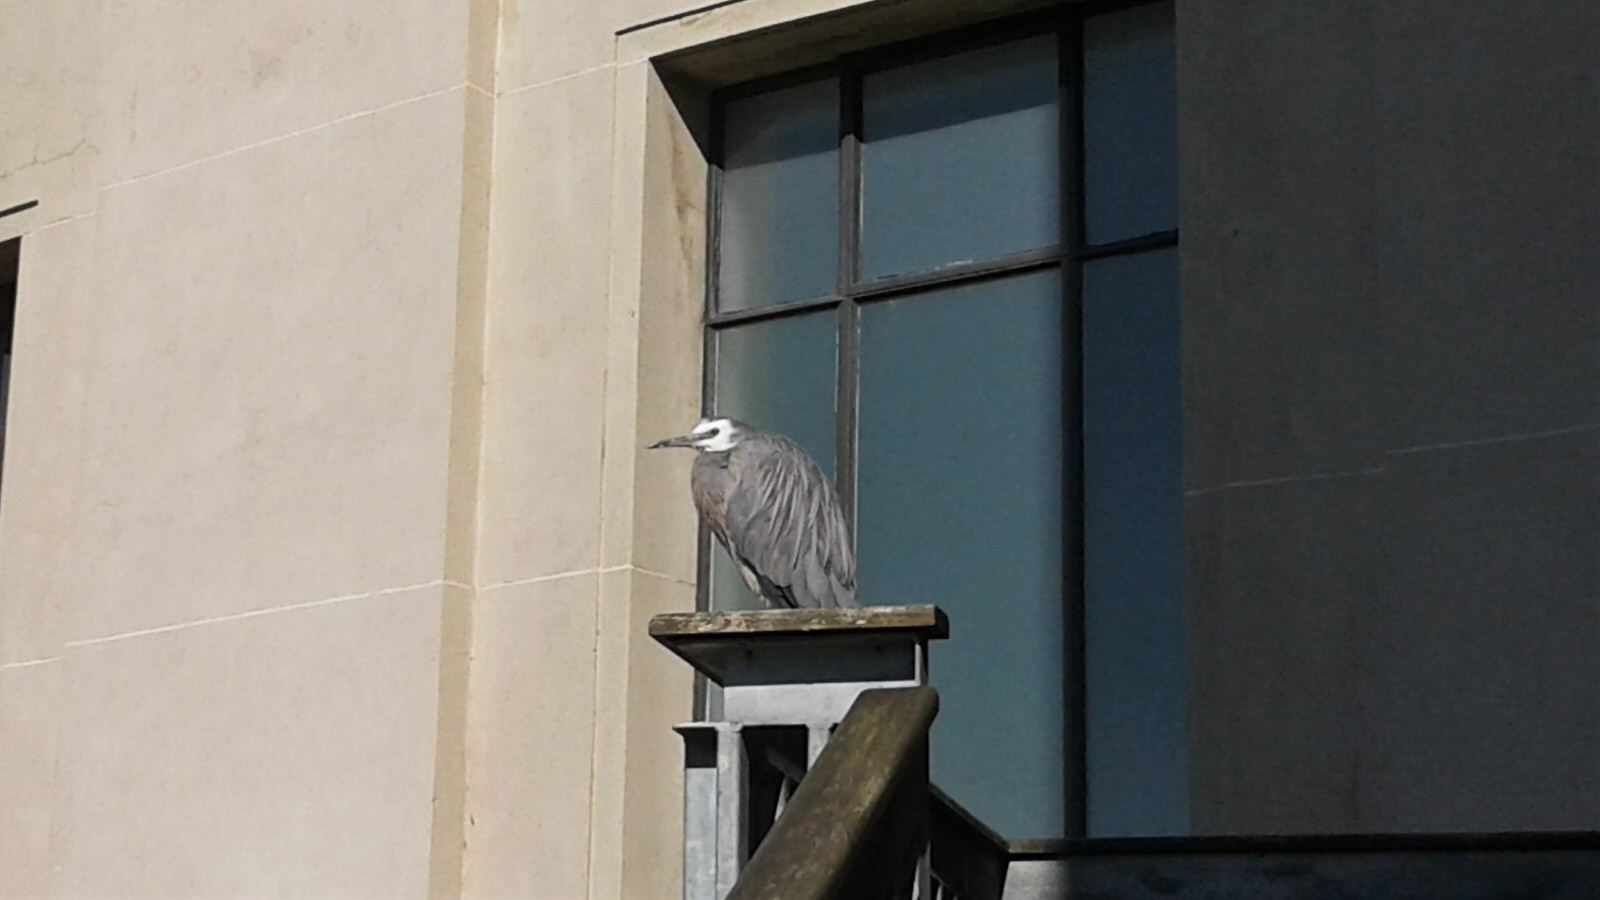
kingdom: Animalia
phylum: Chordata
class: Aves
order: Pelecaniformes
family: Ardeidae
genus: Egretta
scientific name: Egretta novaehollandiae
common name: White-faced heron
